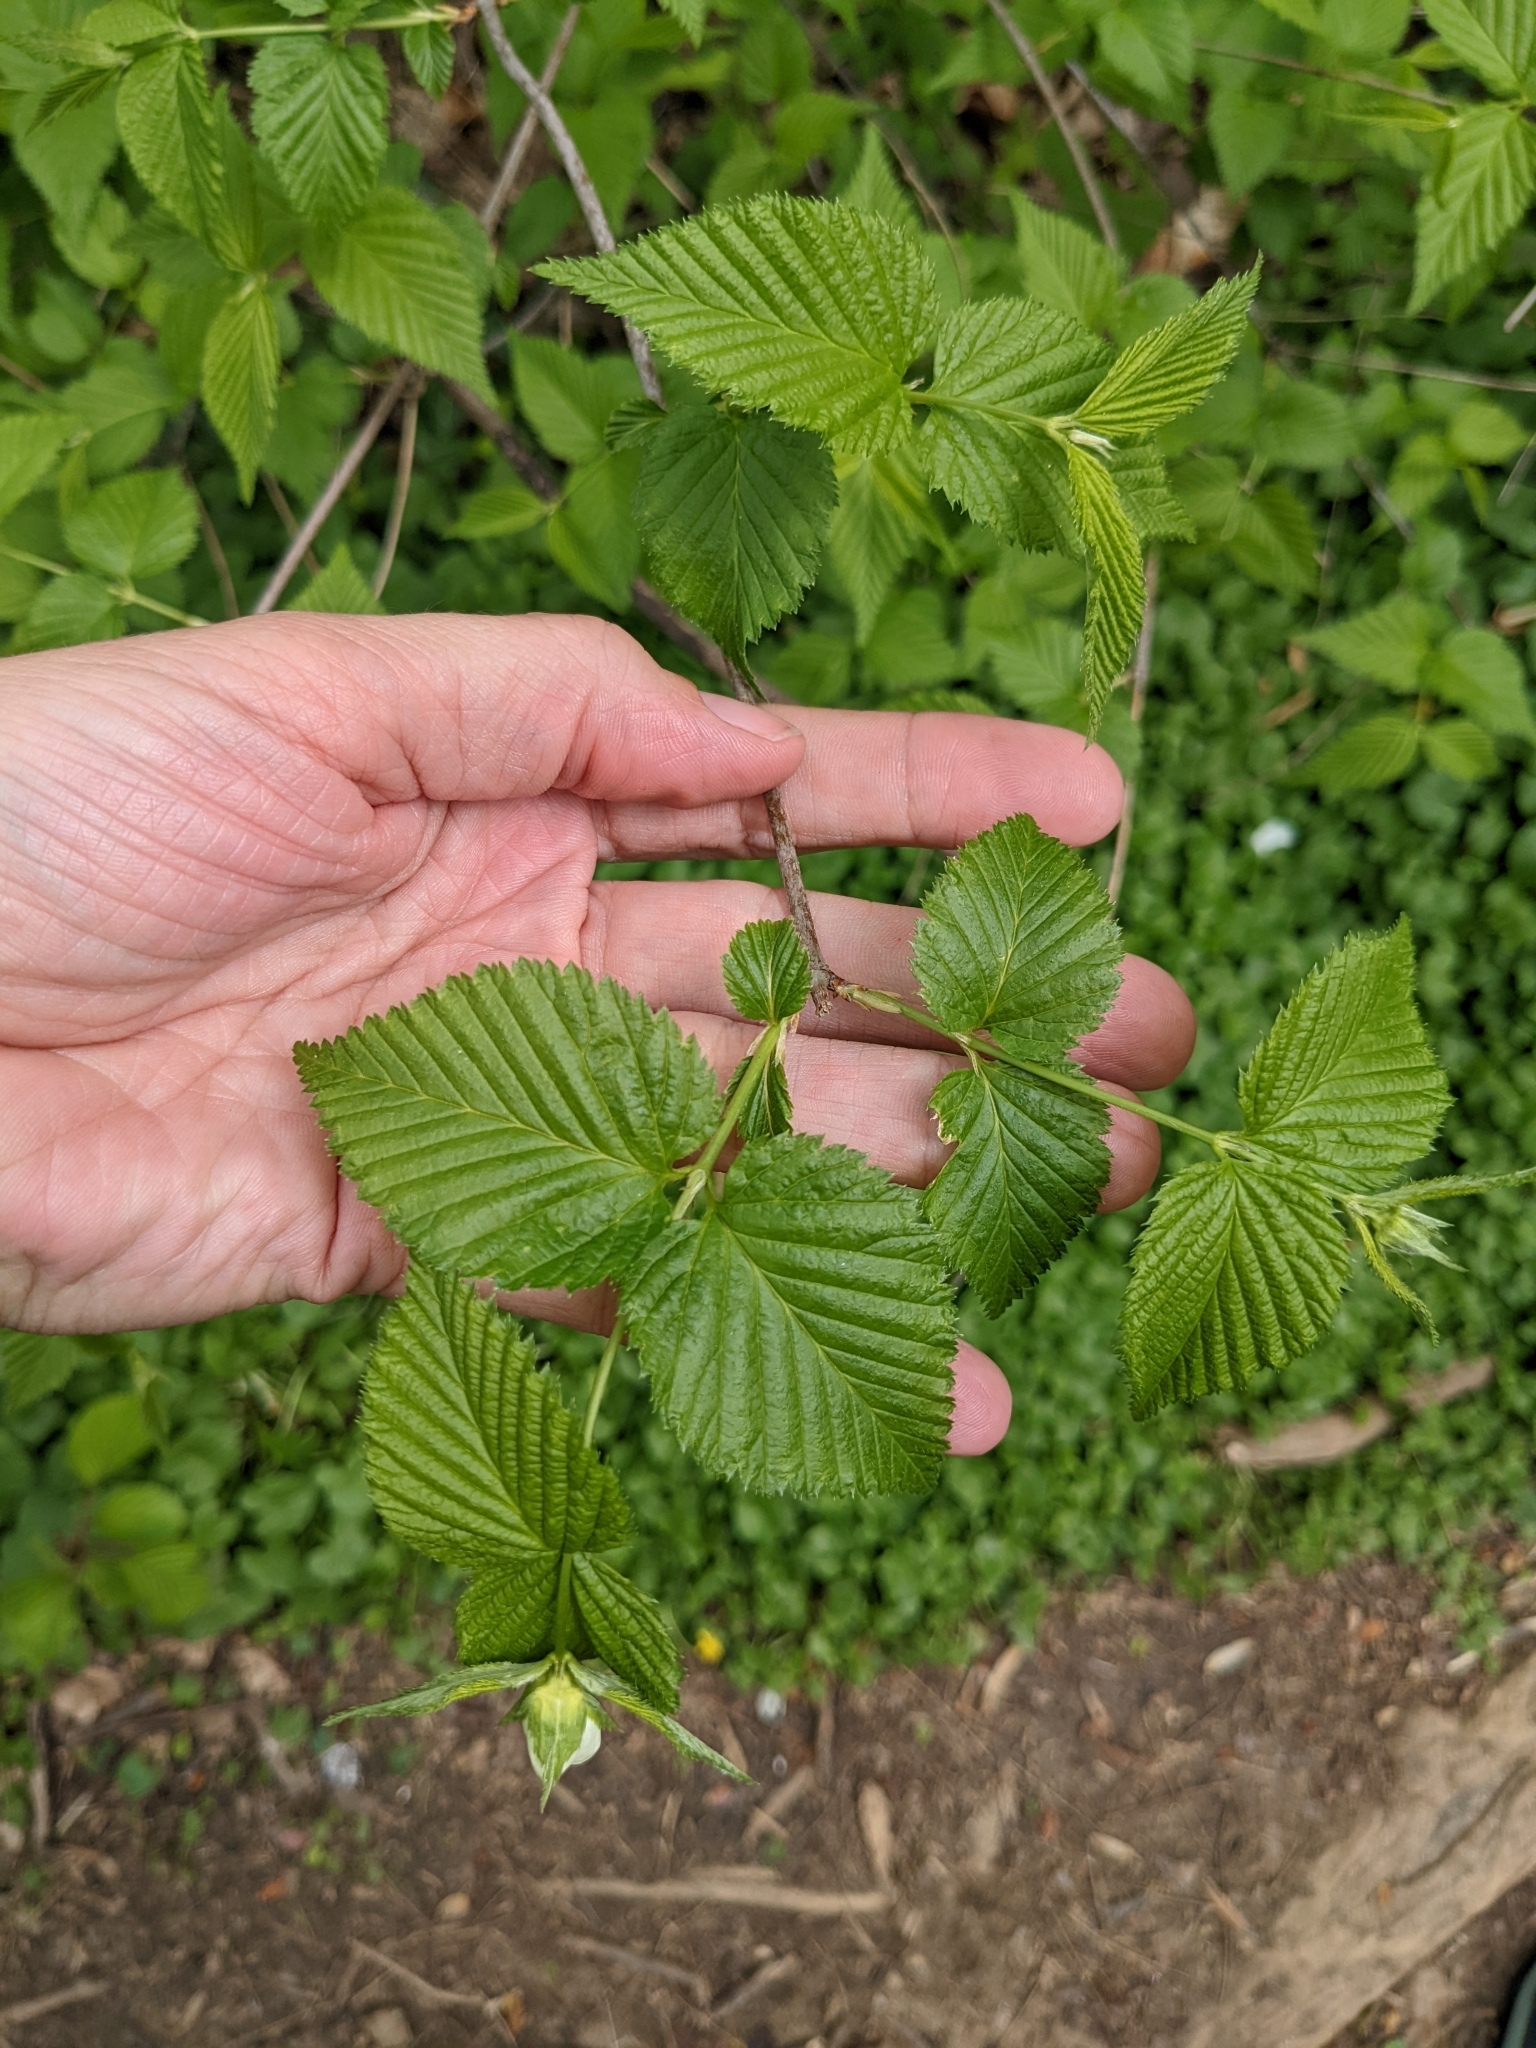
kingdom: Plantae
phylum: Tracheophyta
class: Magnoliopsida
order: Rosales
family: Rosaceae
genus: Rhodotypos
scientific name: Rhodotypos scandens
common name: Jetbead
